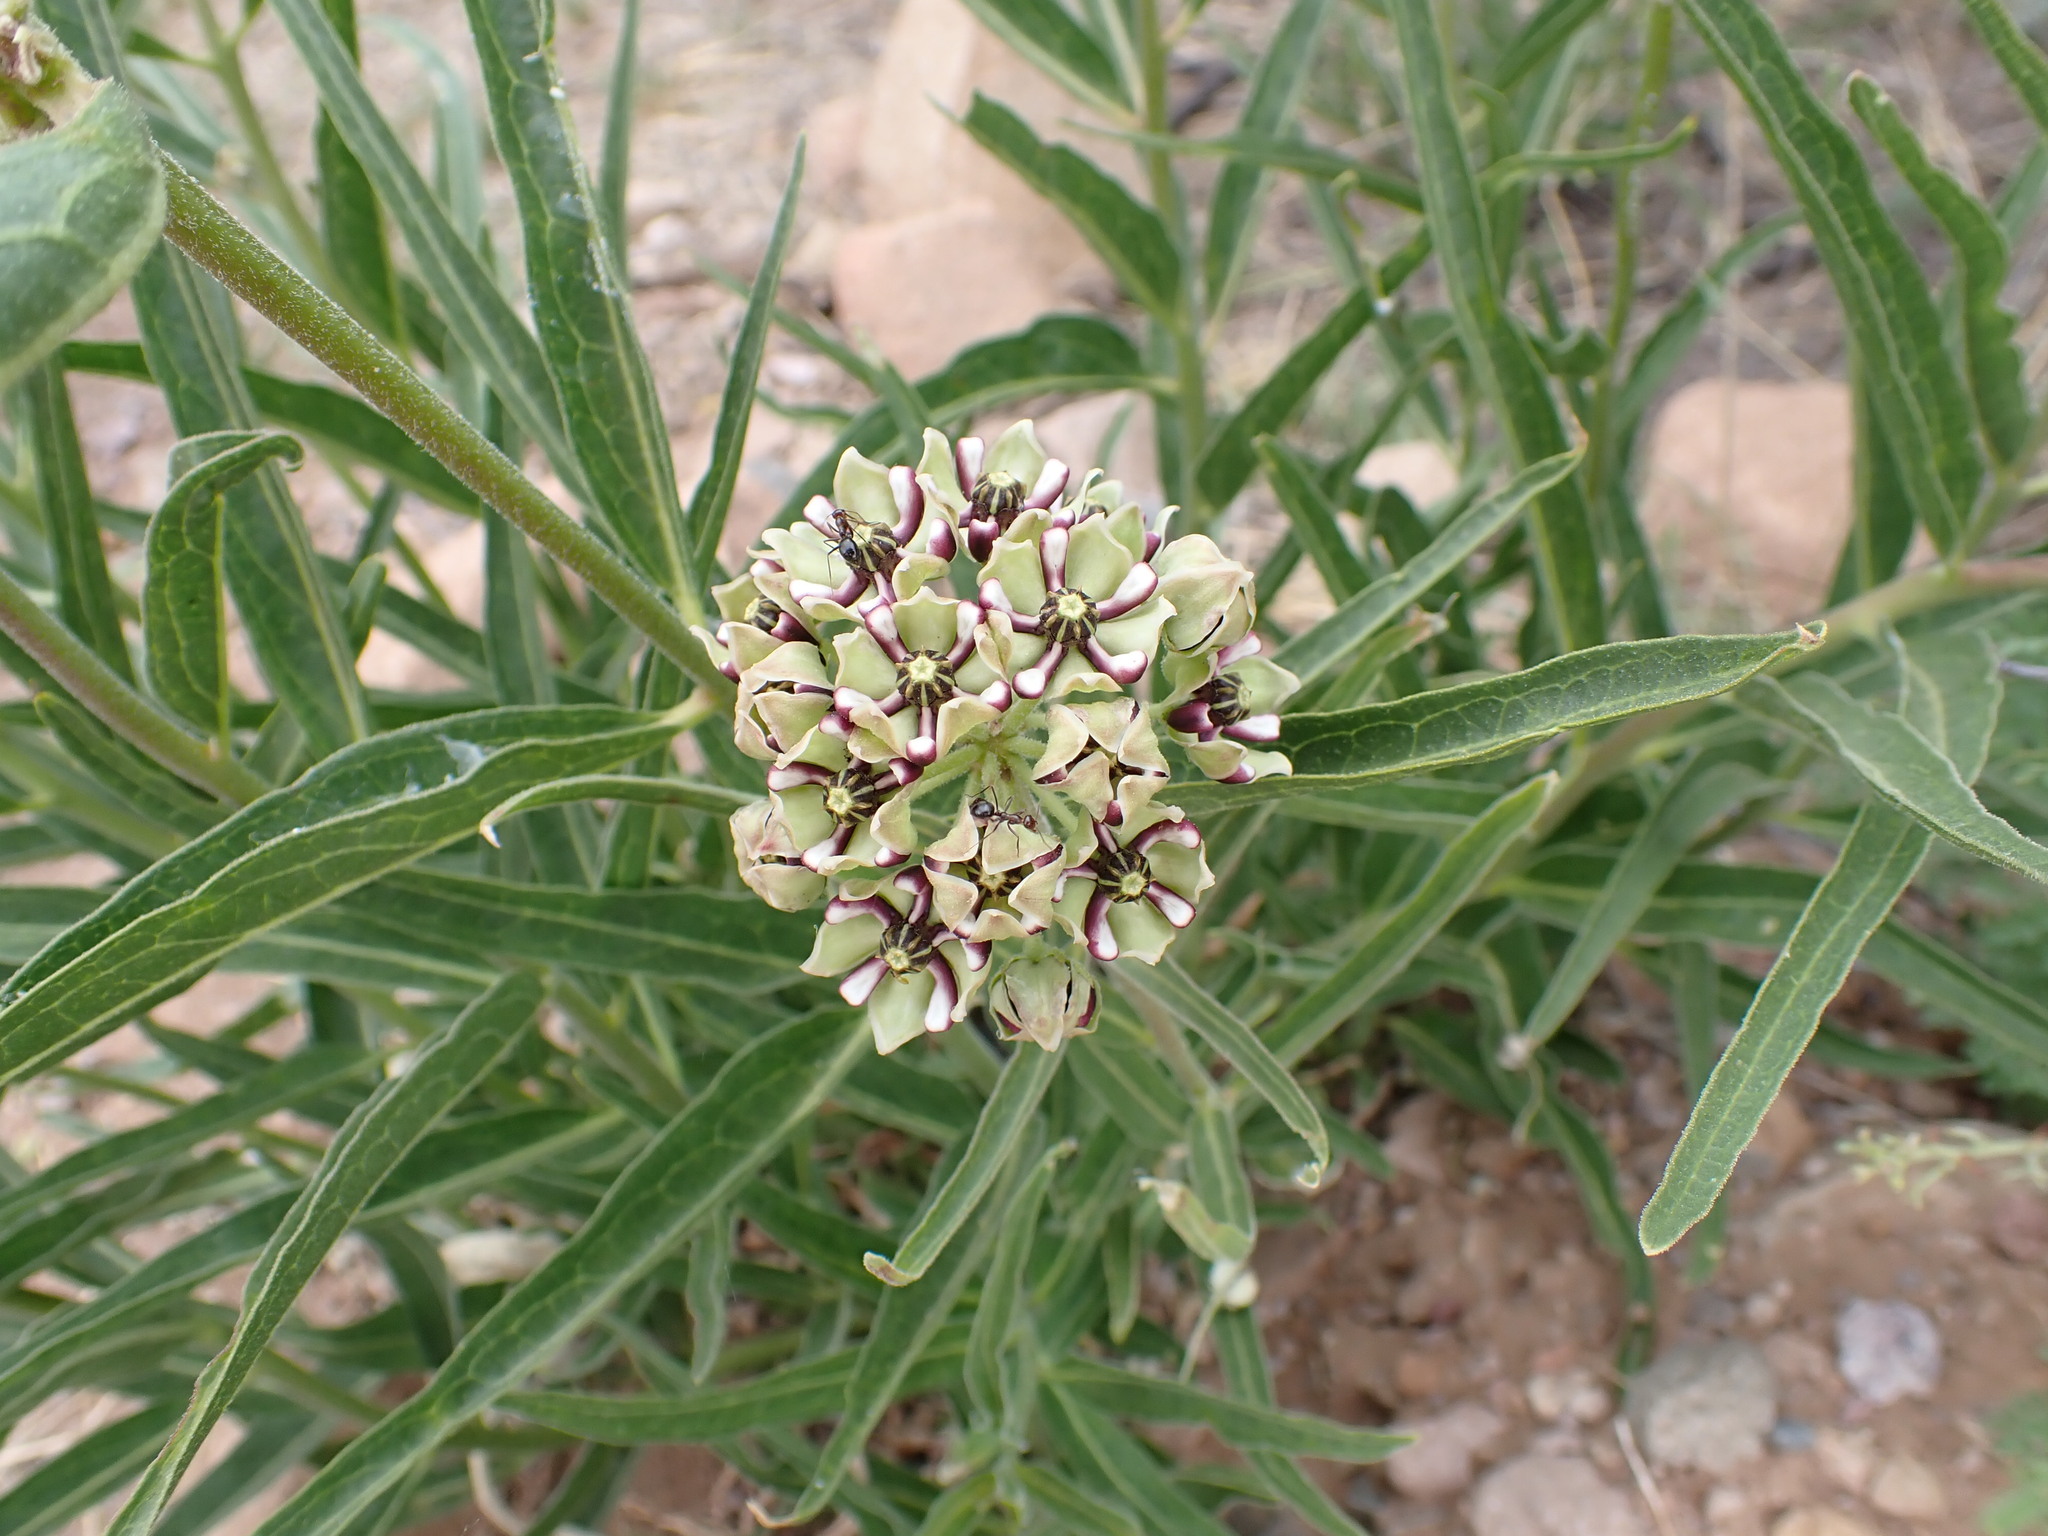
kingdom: Plantae
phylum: Tracheophyta
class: Magnoliopsida
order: Gentianales
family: Apocynaceae
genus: Asclepias
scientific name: Asclepias asperula
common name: Antelope horns
